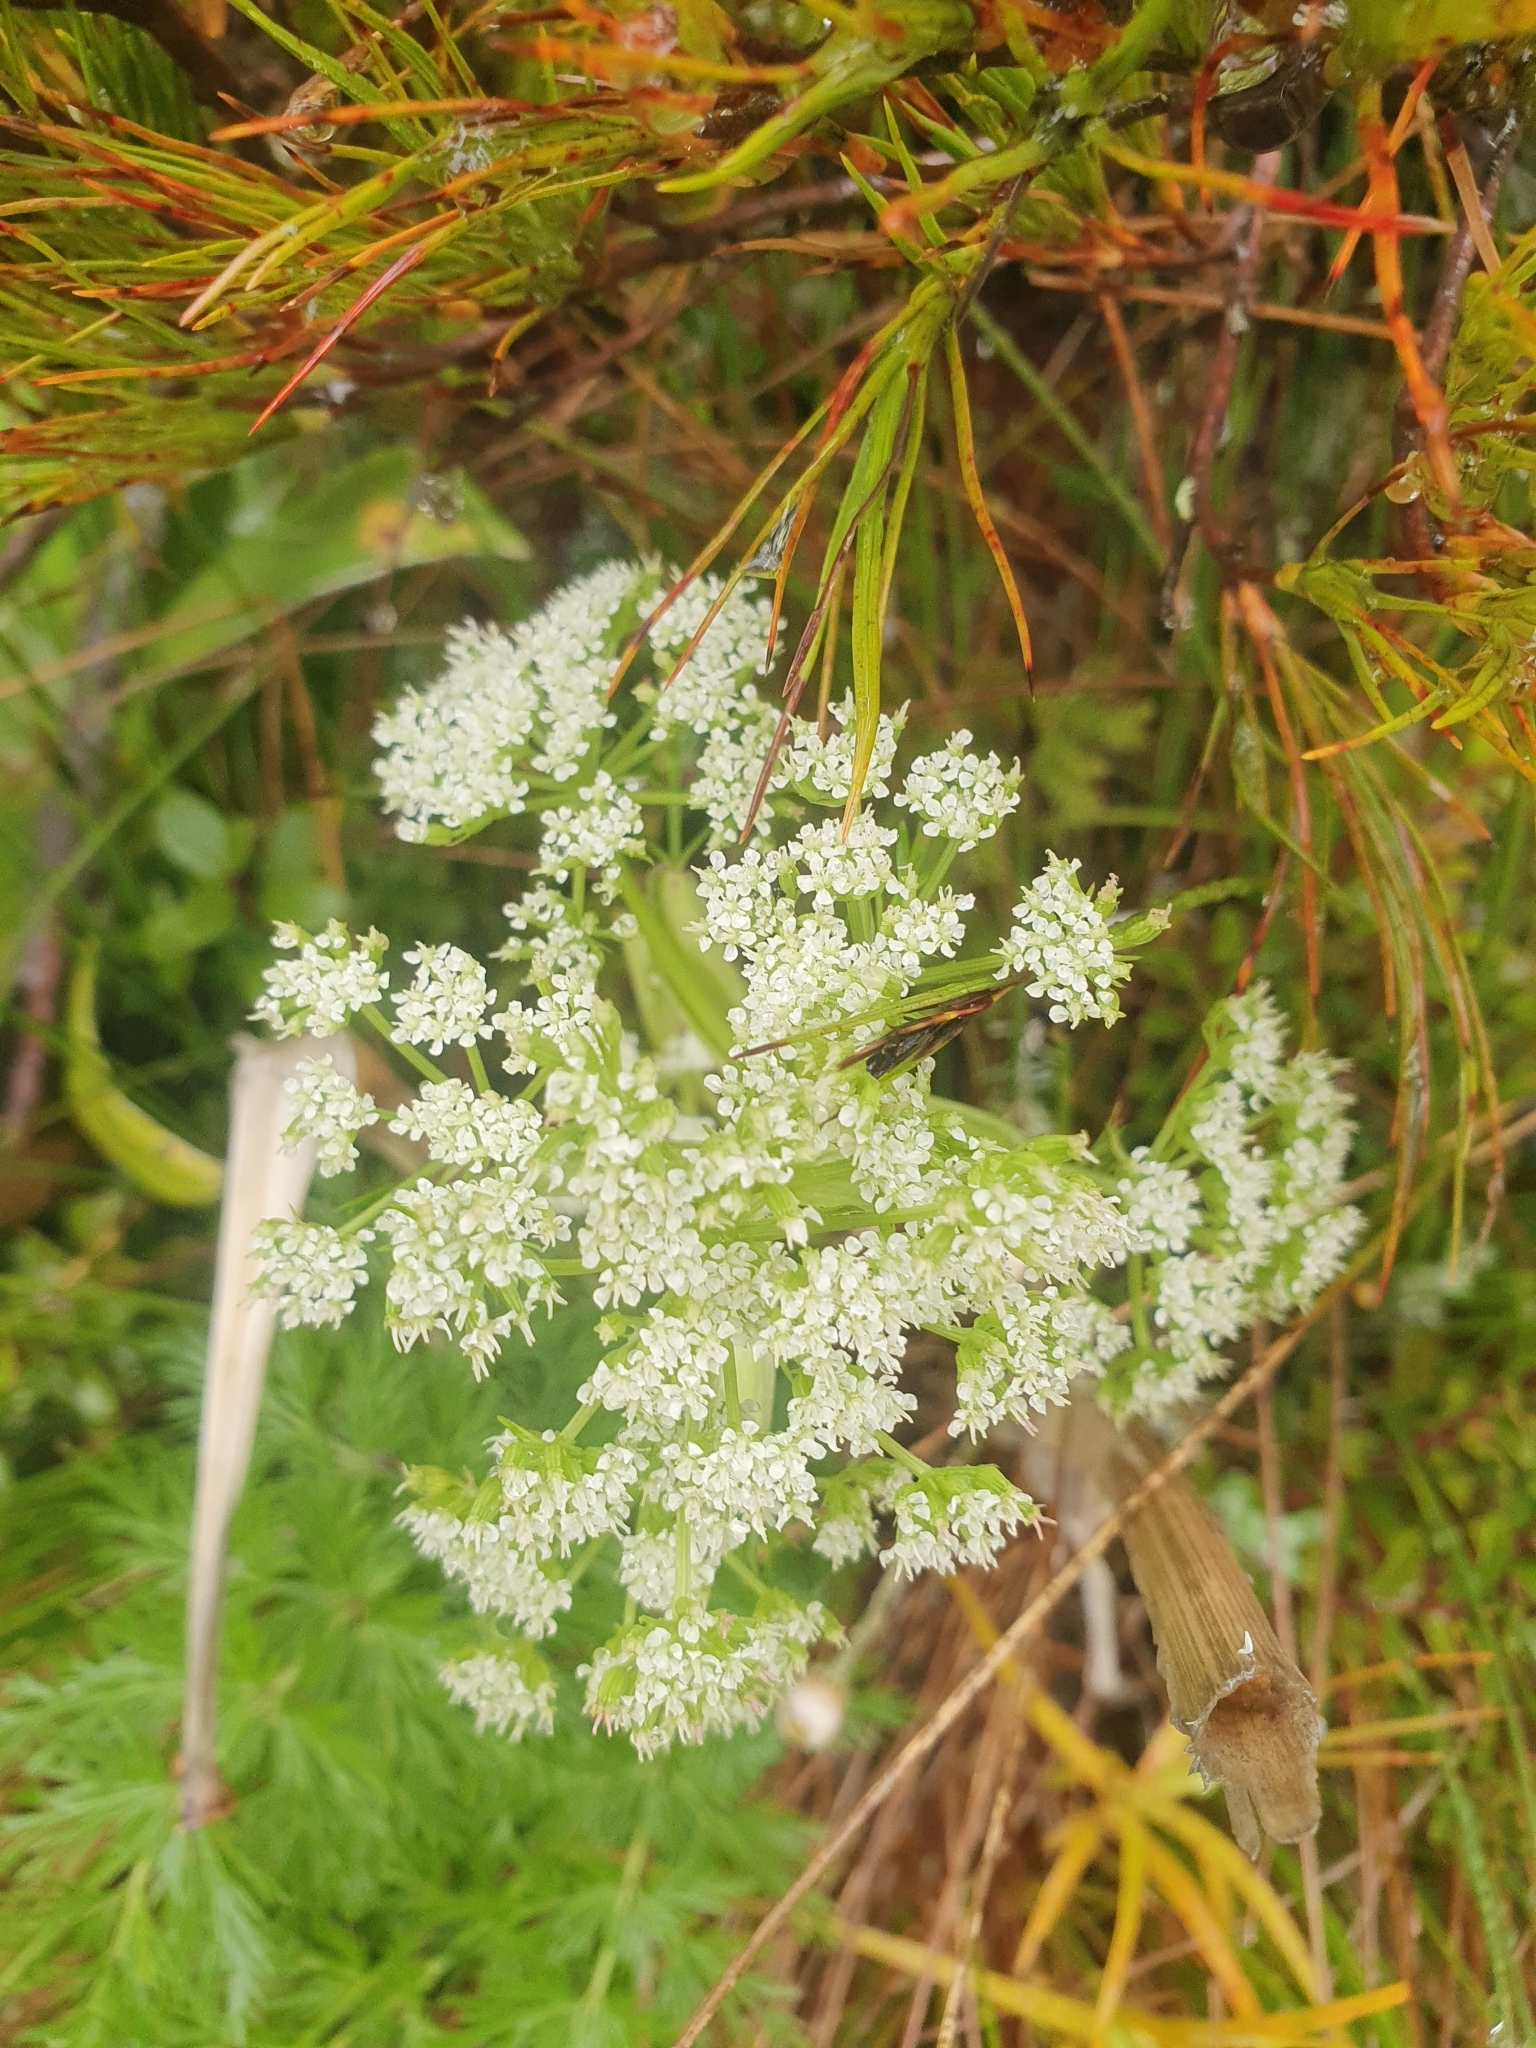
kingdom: Plantae
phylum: Tracheophyta
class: Magnoliopsida
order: Apiales
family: Apiaceae
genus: Anisotome
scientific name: Anisotome haastii
